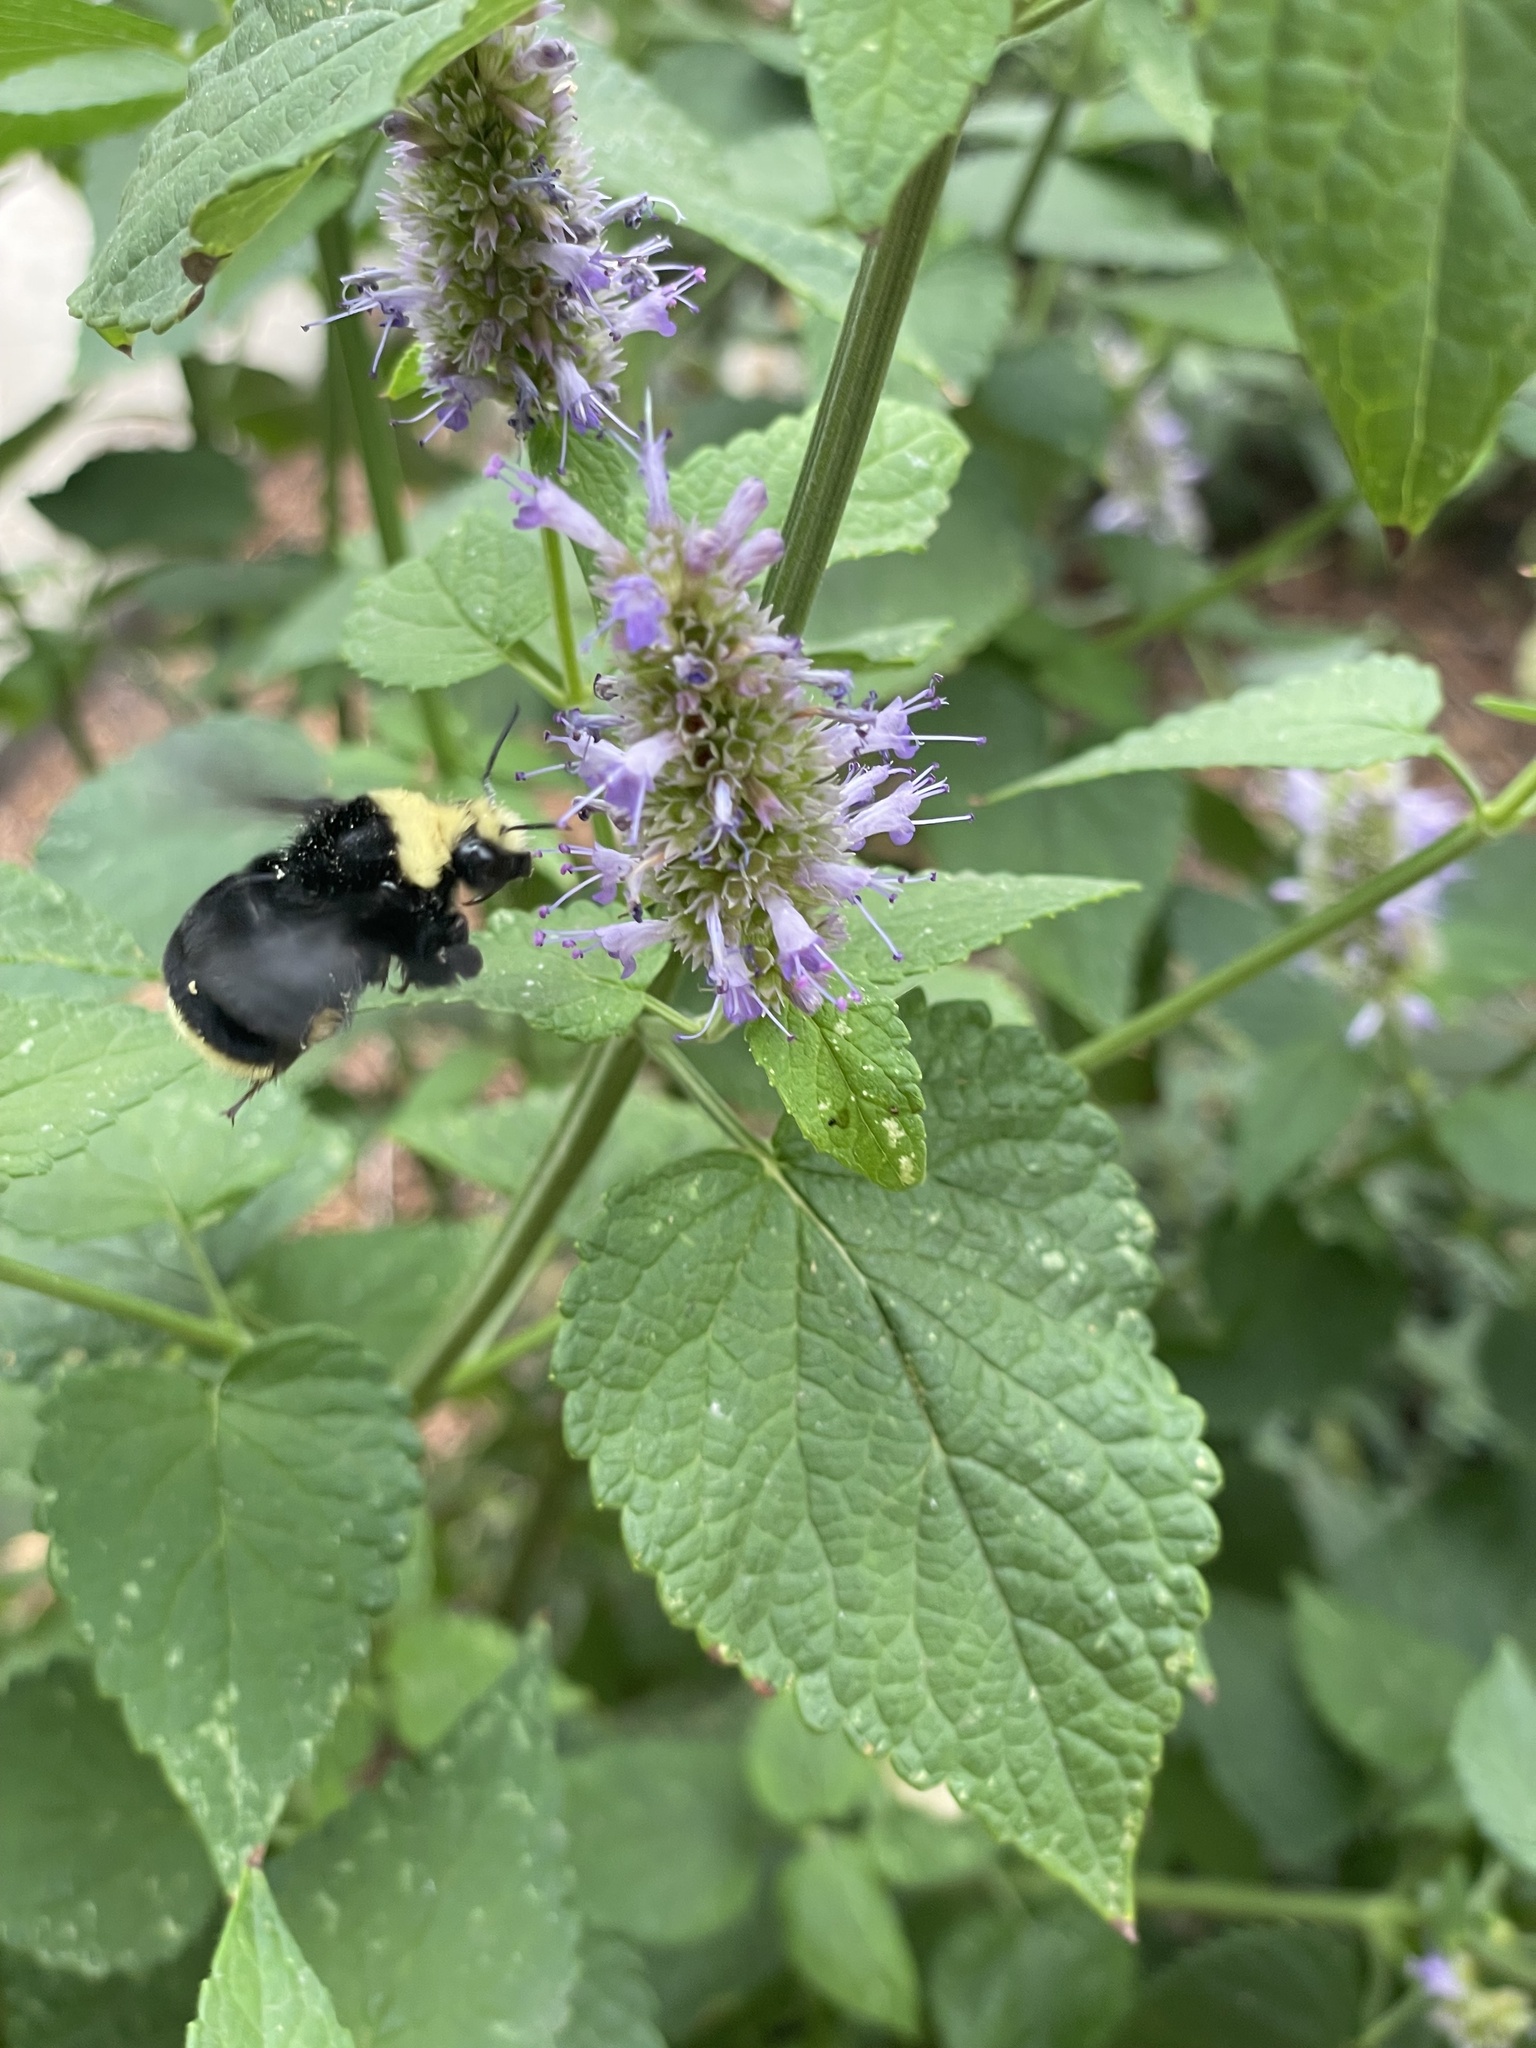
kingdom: Animalia
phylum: Arthropoda
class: Insecta
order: Hymenoptera
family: Apidae
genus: Bombus
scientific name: Bombus vosnesenskii
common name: Vosnesensky bumble bee
